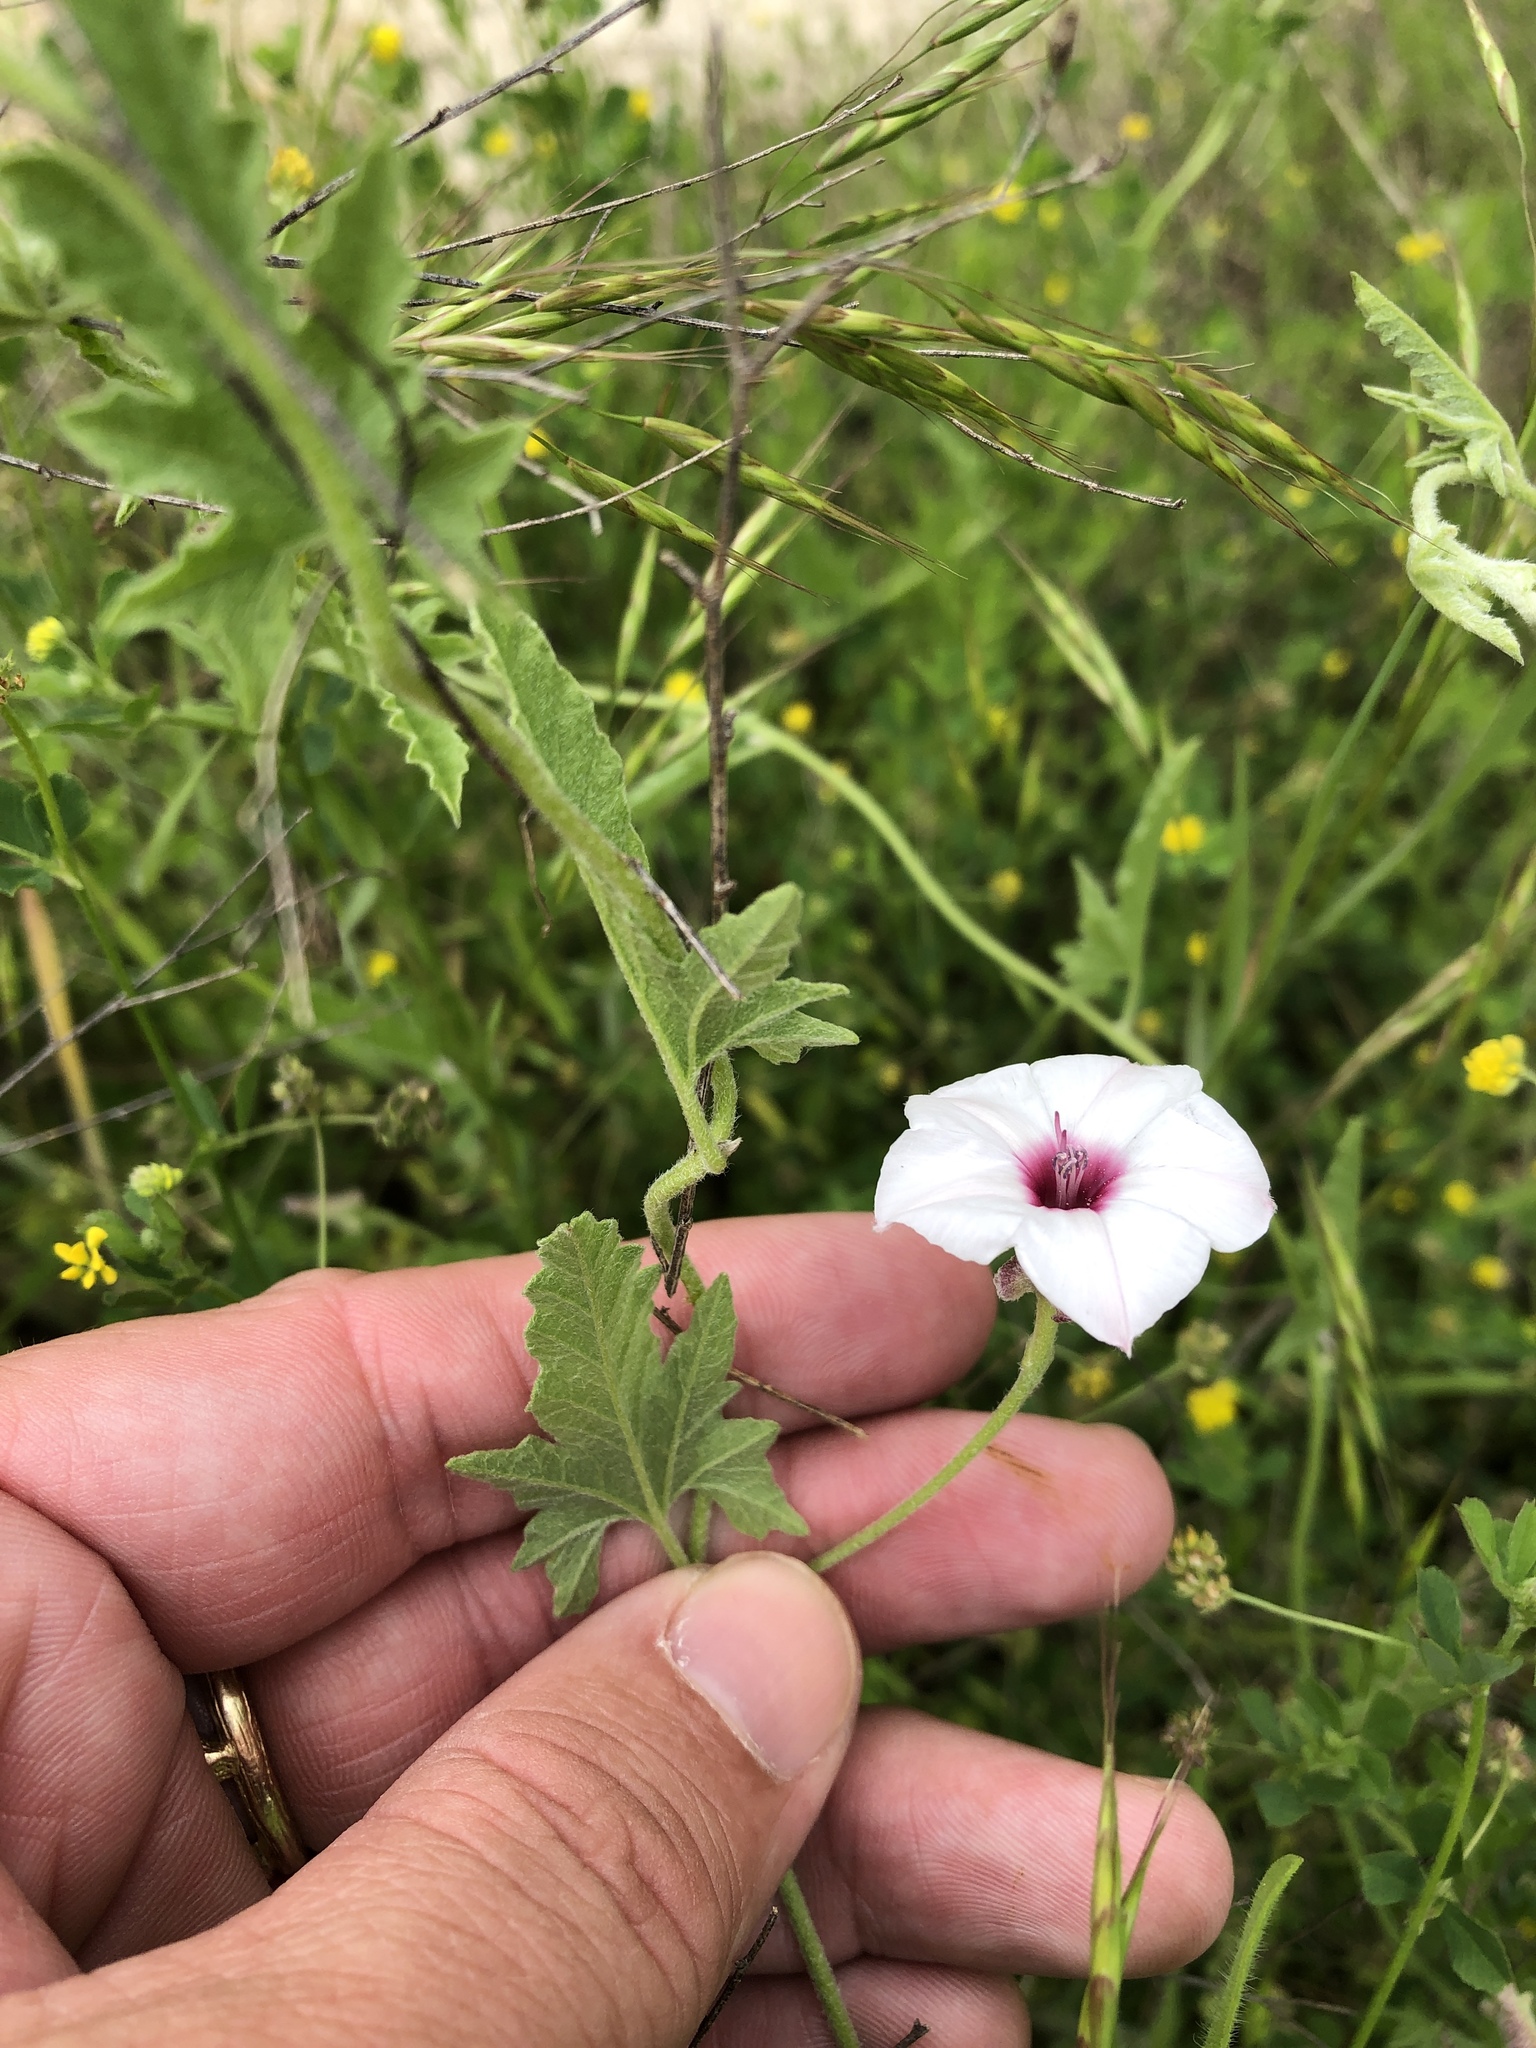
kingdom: Plantae
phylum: Tracheophyta
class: Magnoliopsida
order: Solanales
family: Convolvulaceae
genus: Convolvulus
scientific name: Convolvulus equitans
